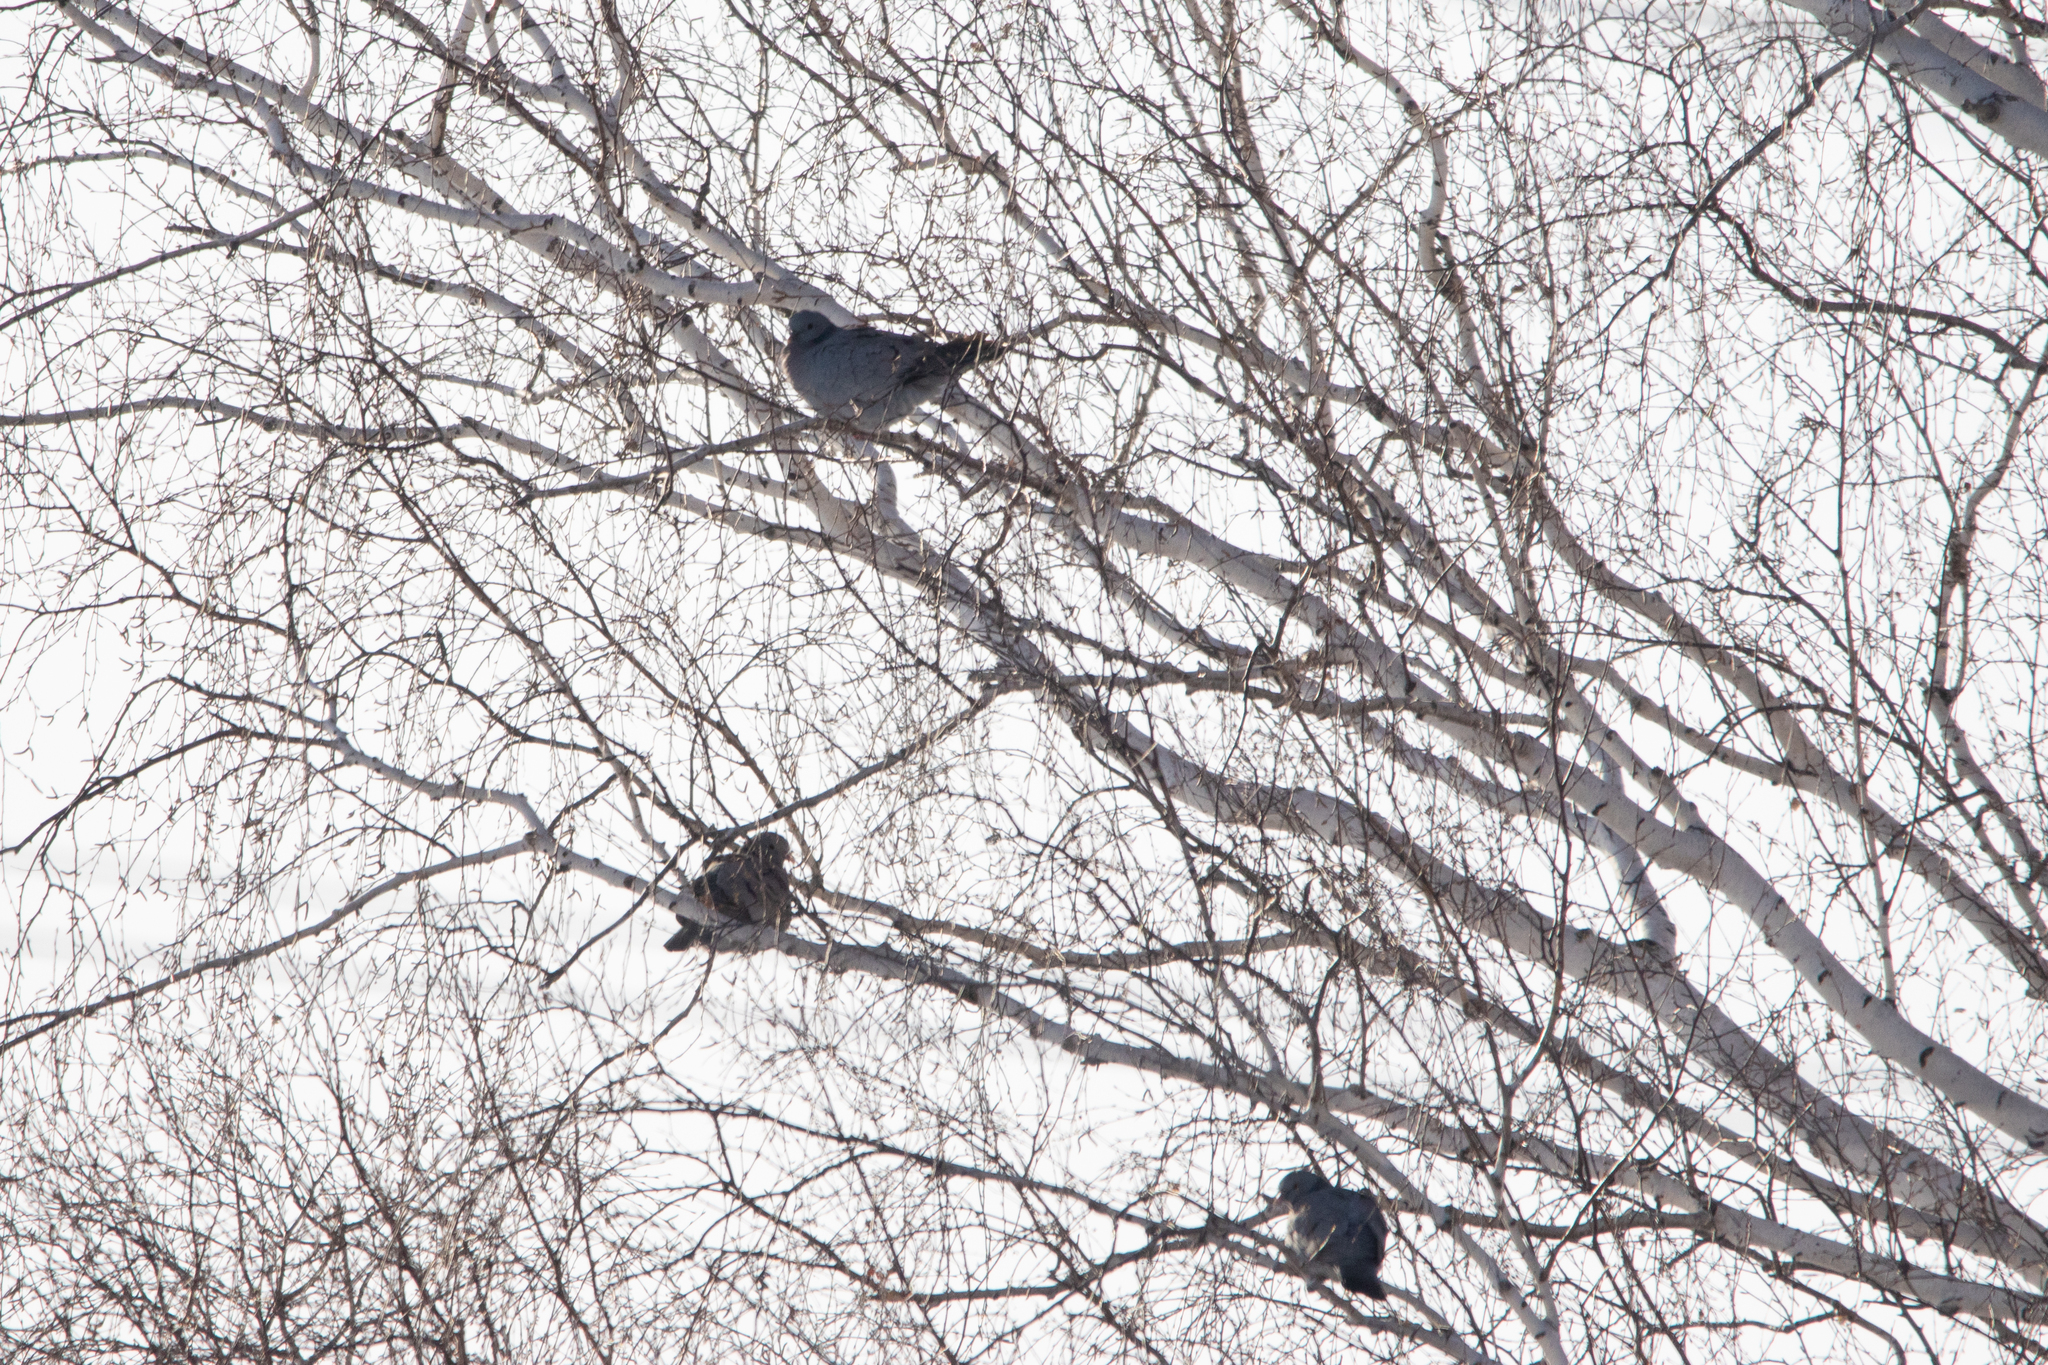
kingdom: Animalia
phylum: Chordata
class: Aves
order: Columbiformes
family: Columbidae
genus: Columba
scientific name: Columba oenas
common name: Stock dove
